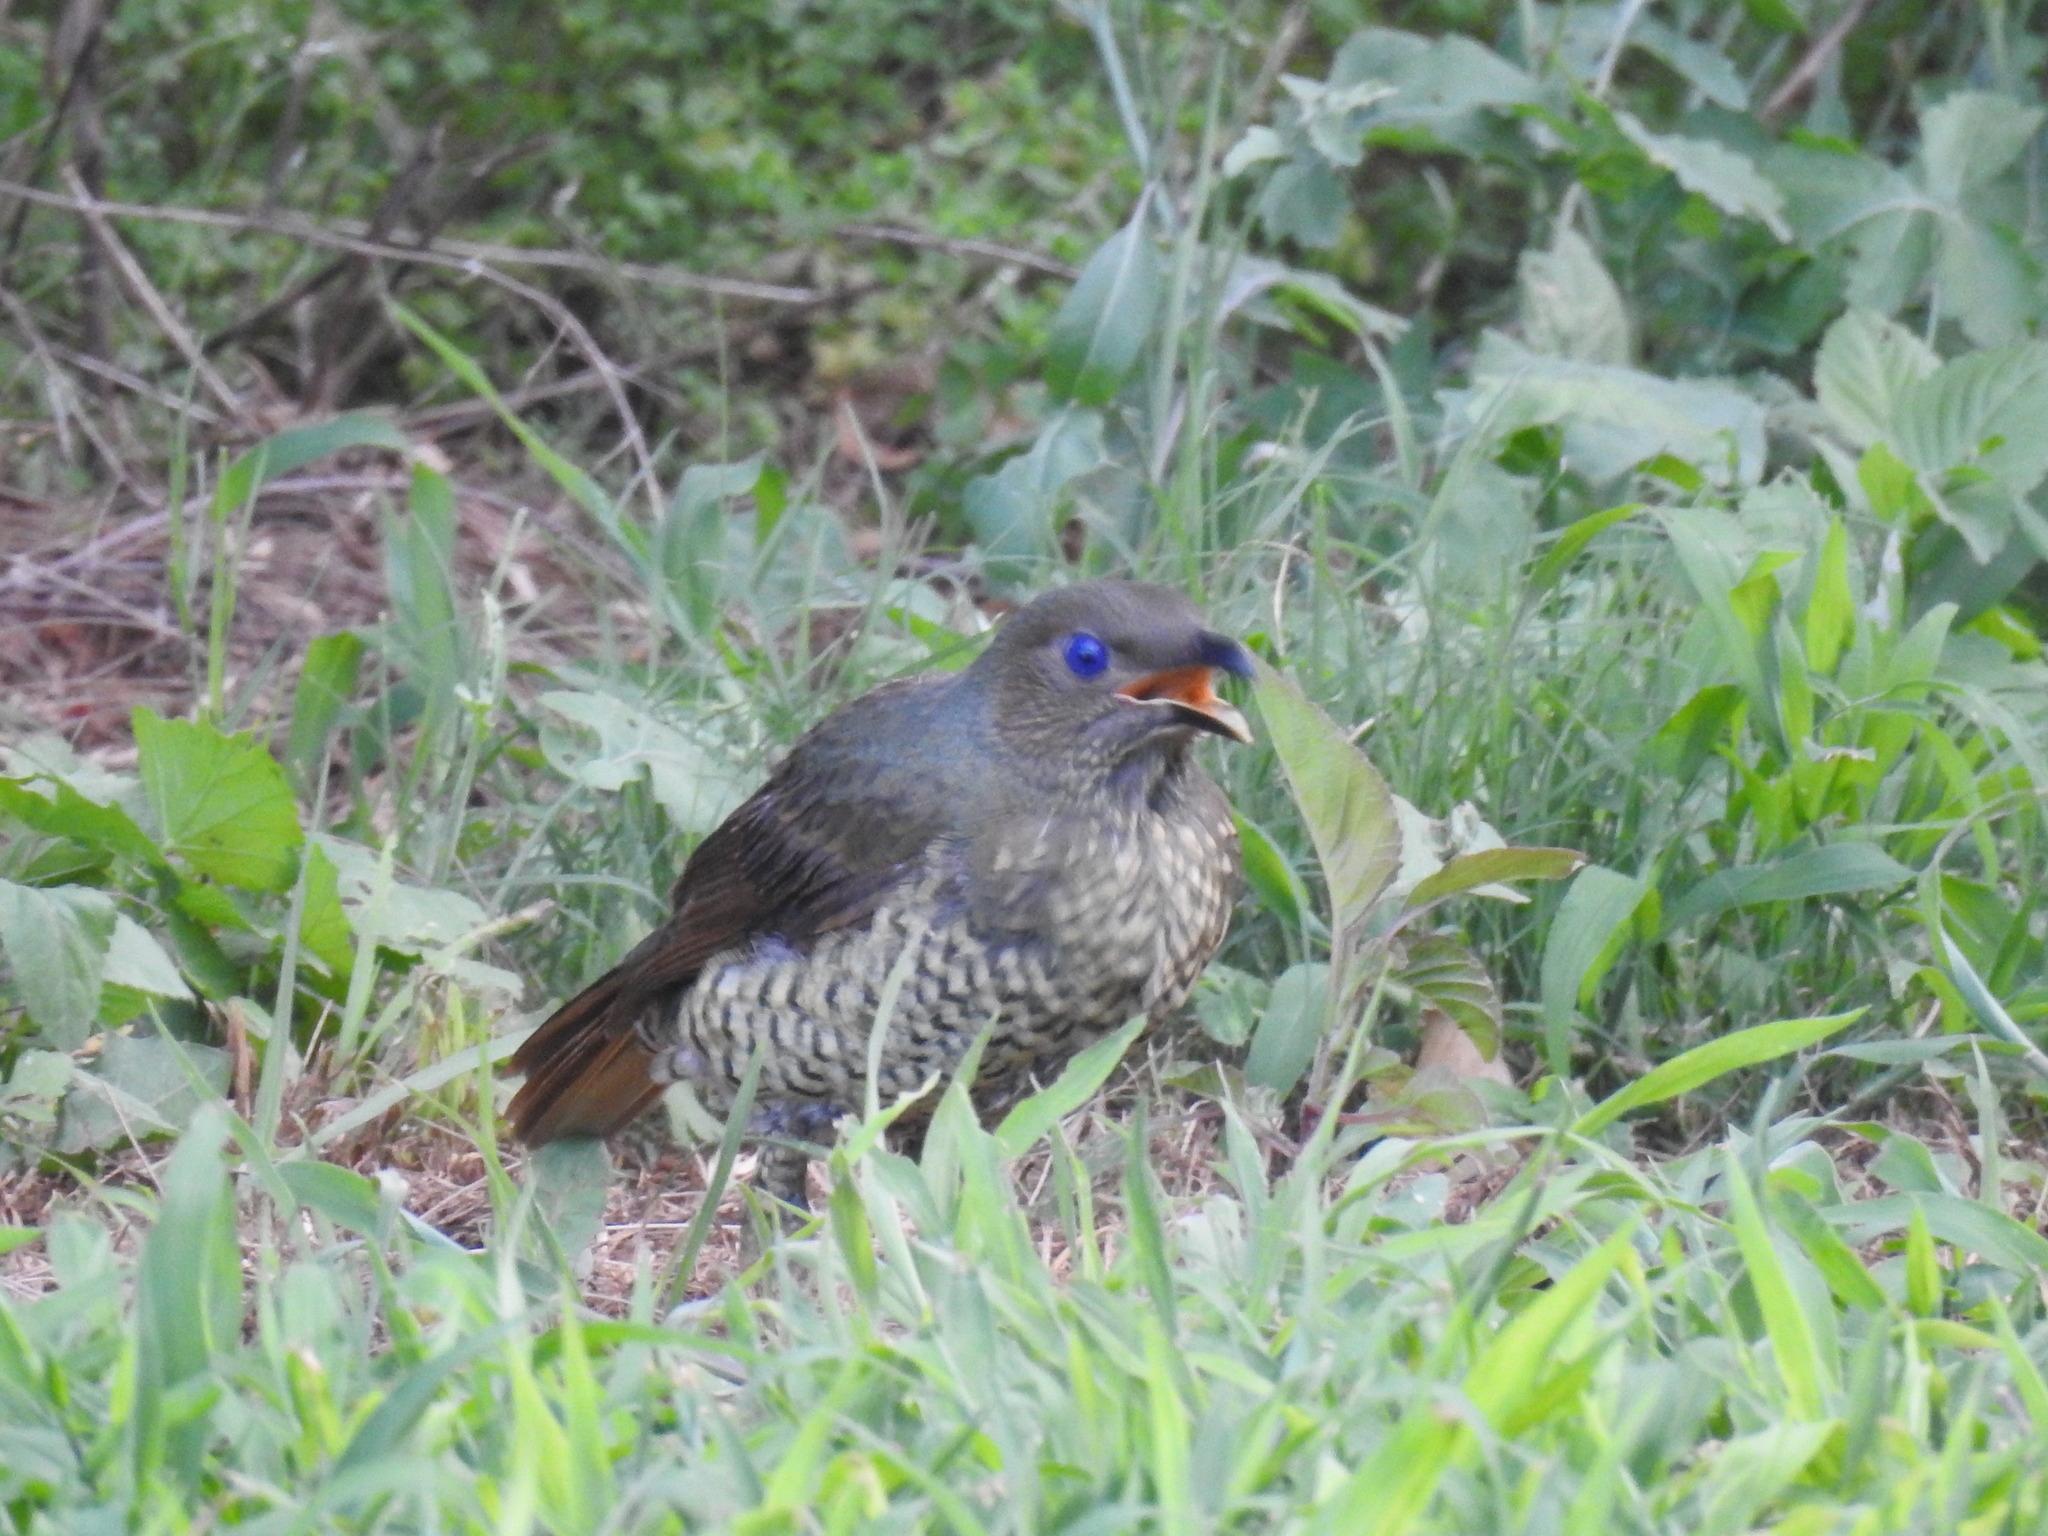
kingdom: Animalia
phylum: Chordata
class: Aves
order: Passeriformes
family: Ptilonorhynchidae
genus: Ptilonorhynchus
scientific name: Ptilonorhynchus violaceus
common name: Satin bowerbird
